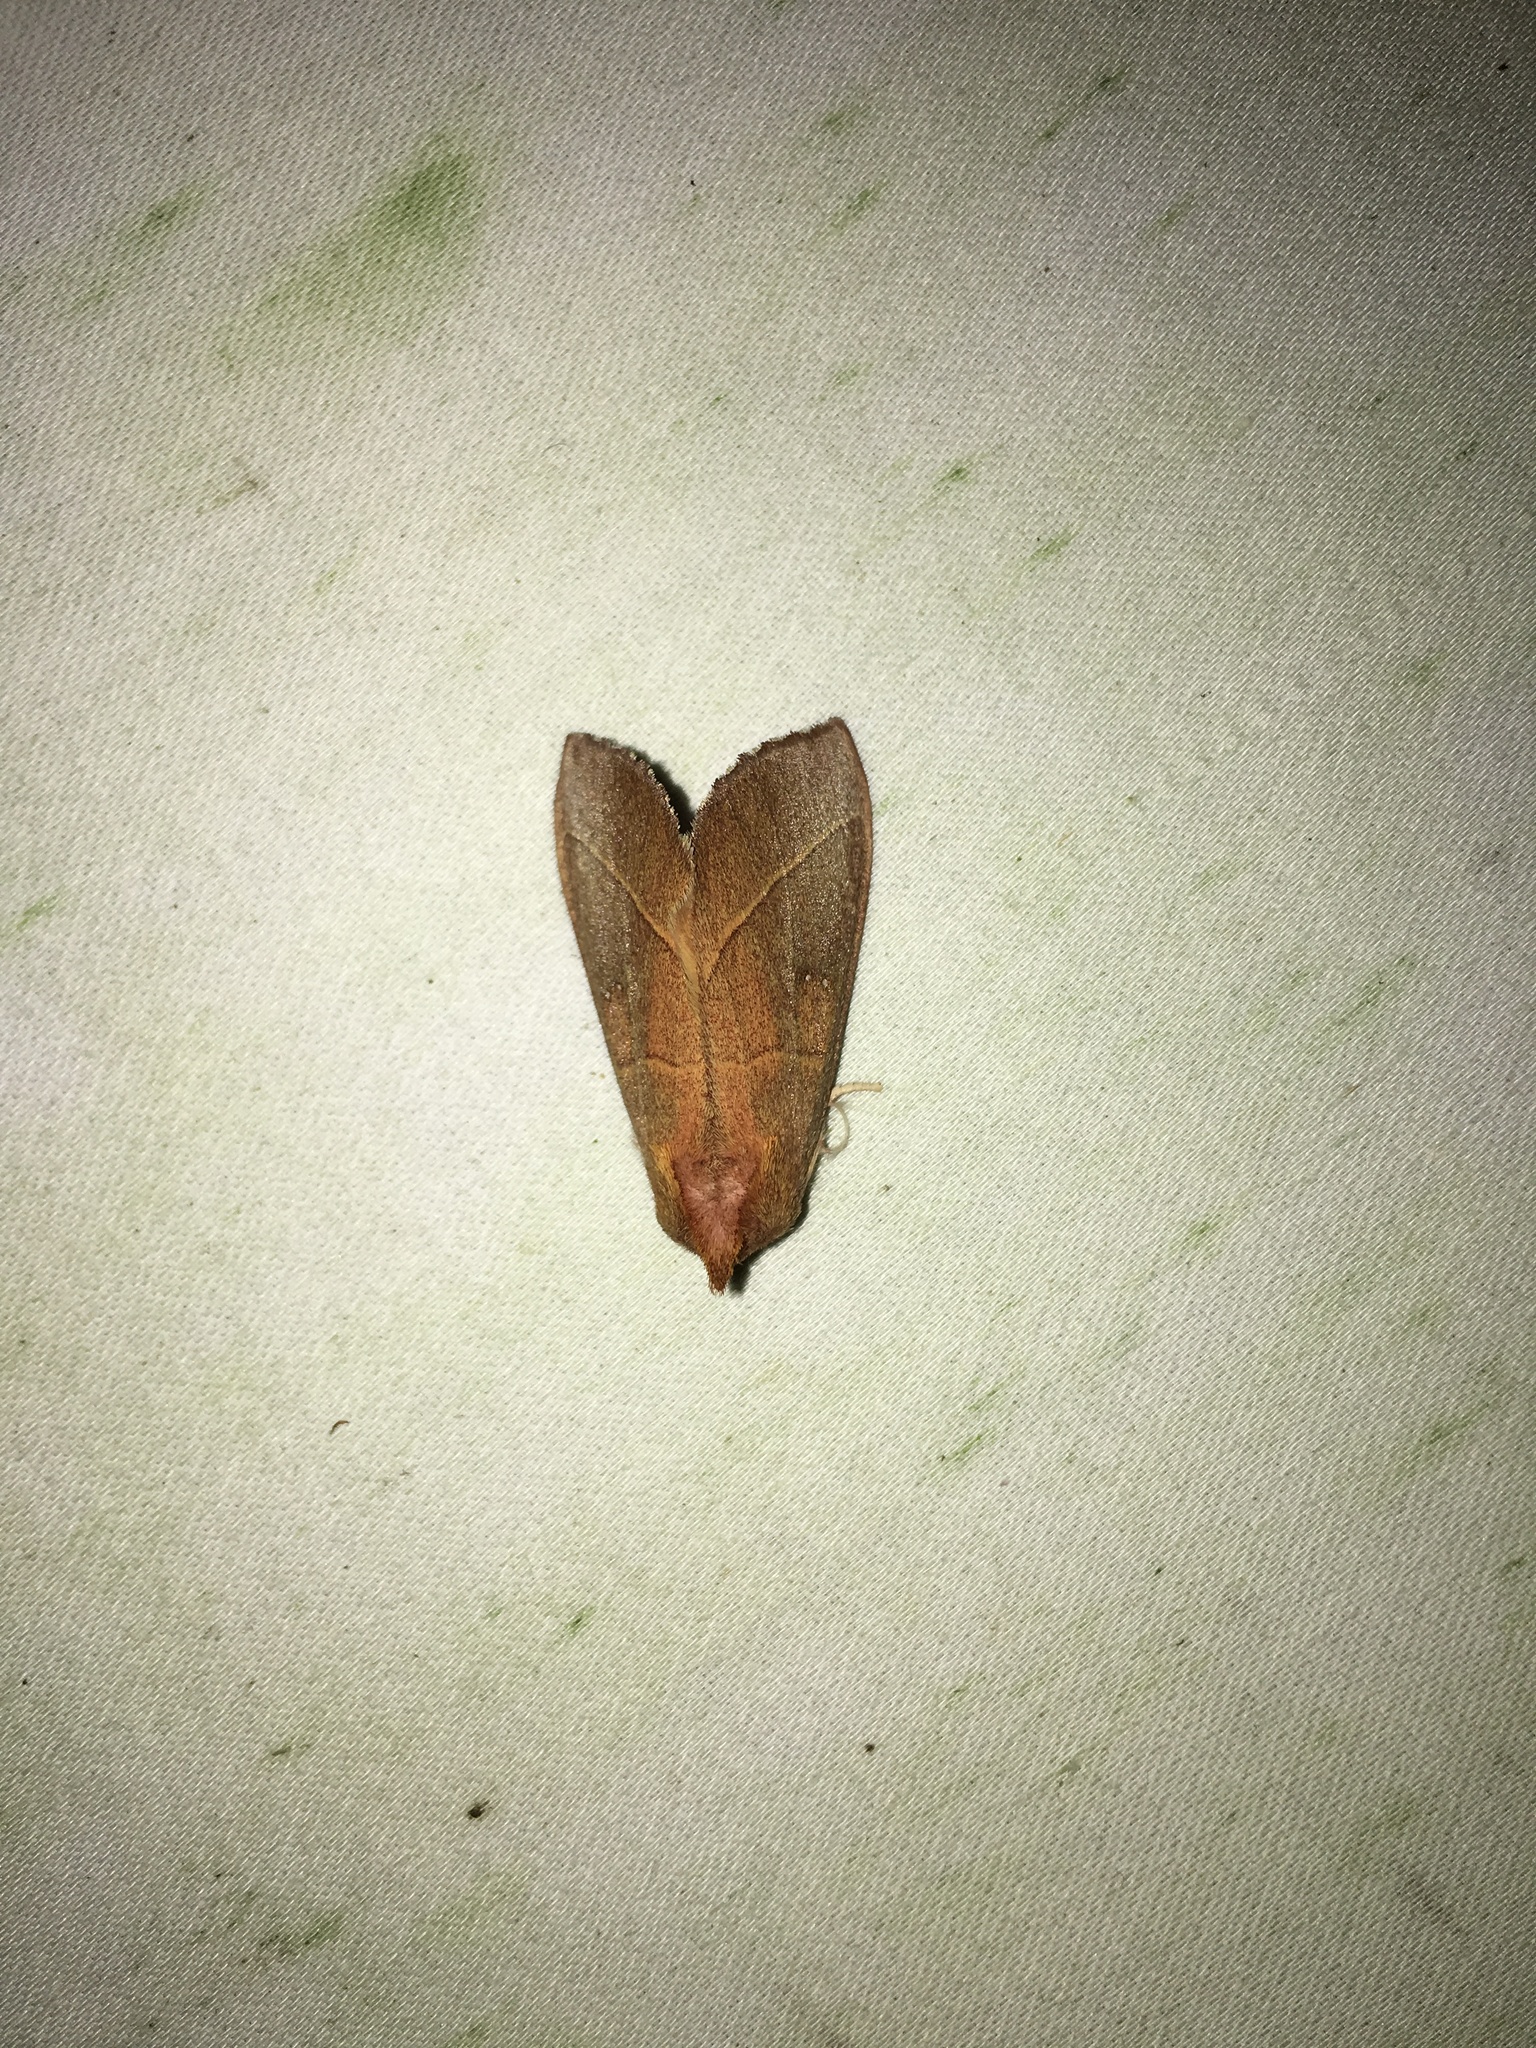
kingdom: Animalia
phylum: Arthropoda
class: Insecta
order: Lepidoptera
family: Notodontidae
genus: Nadata
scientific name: Nadata gibbosa
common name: White-dotted prominent
